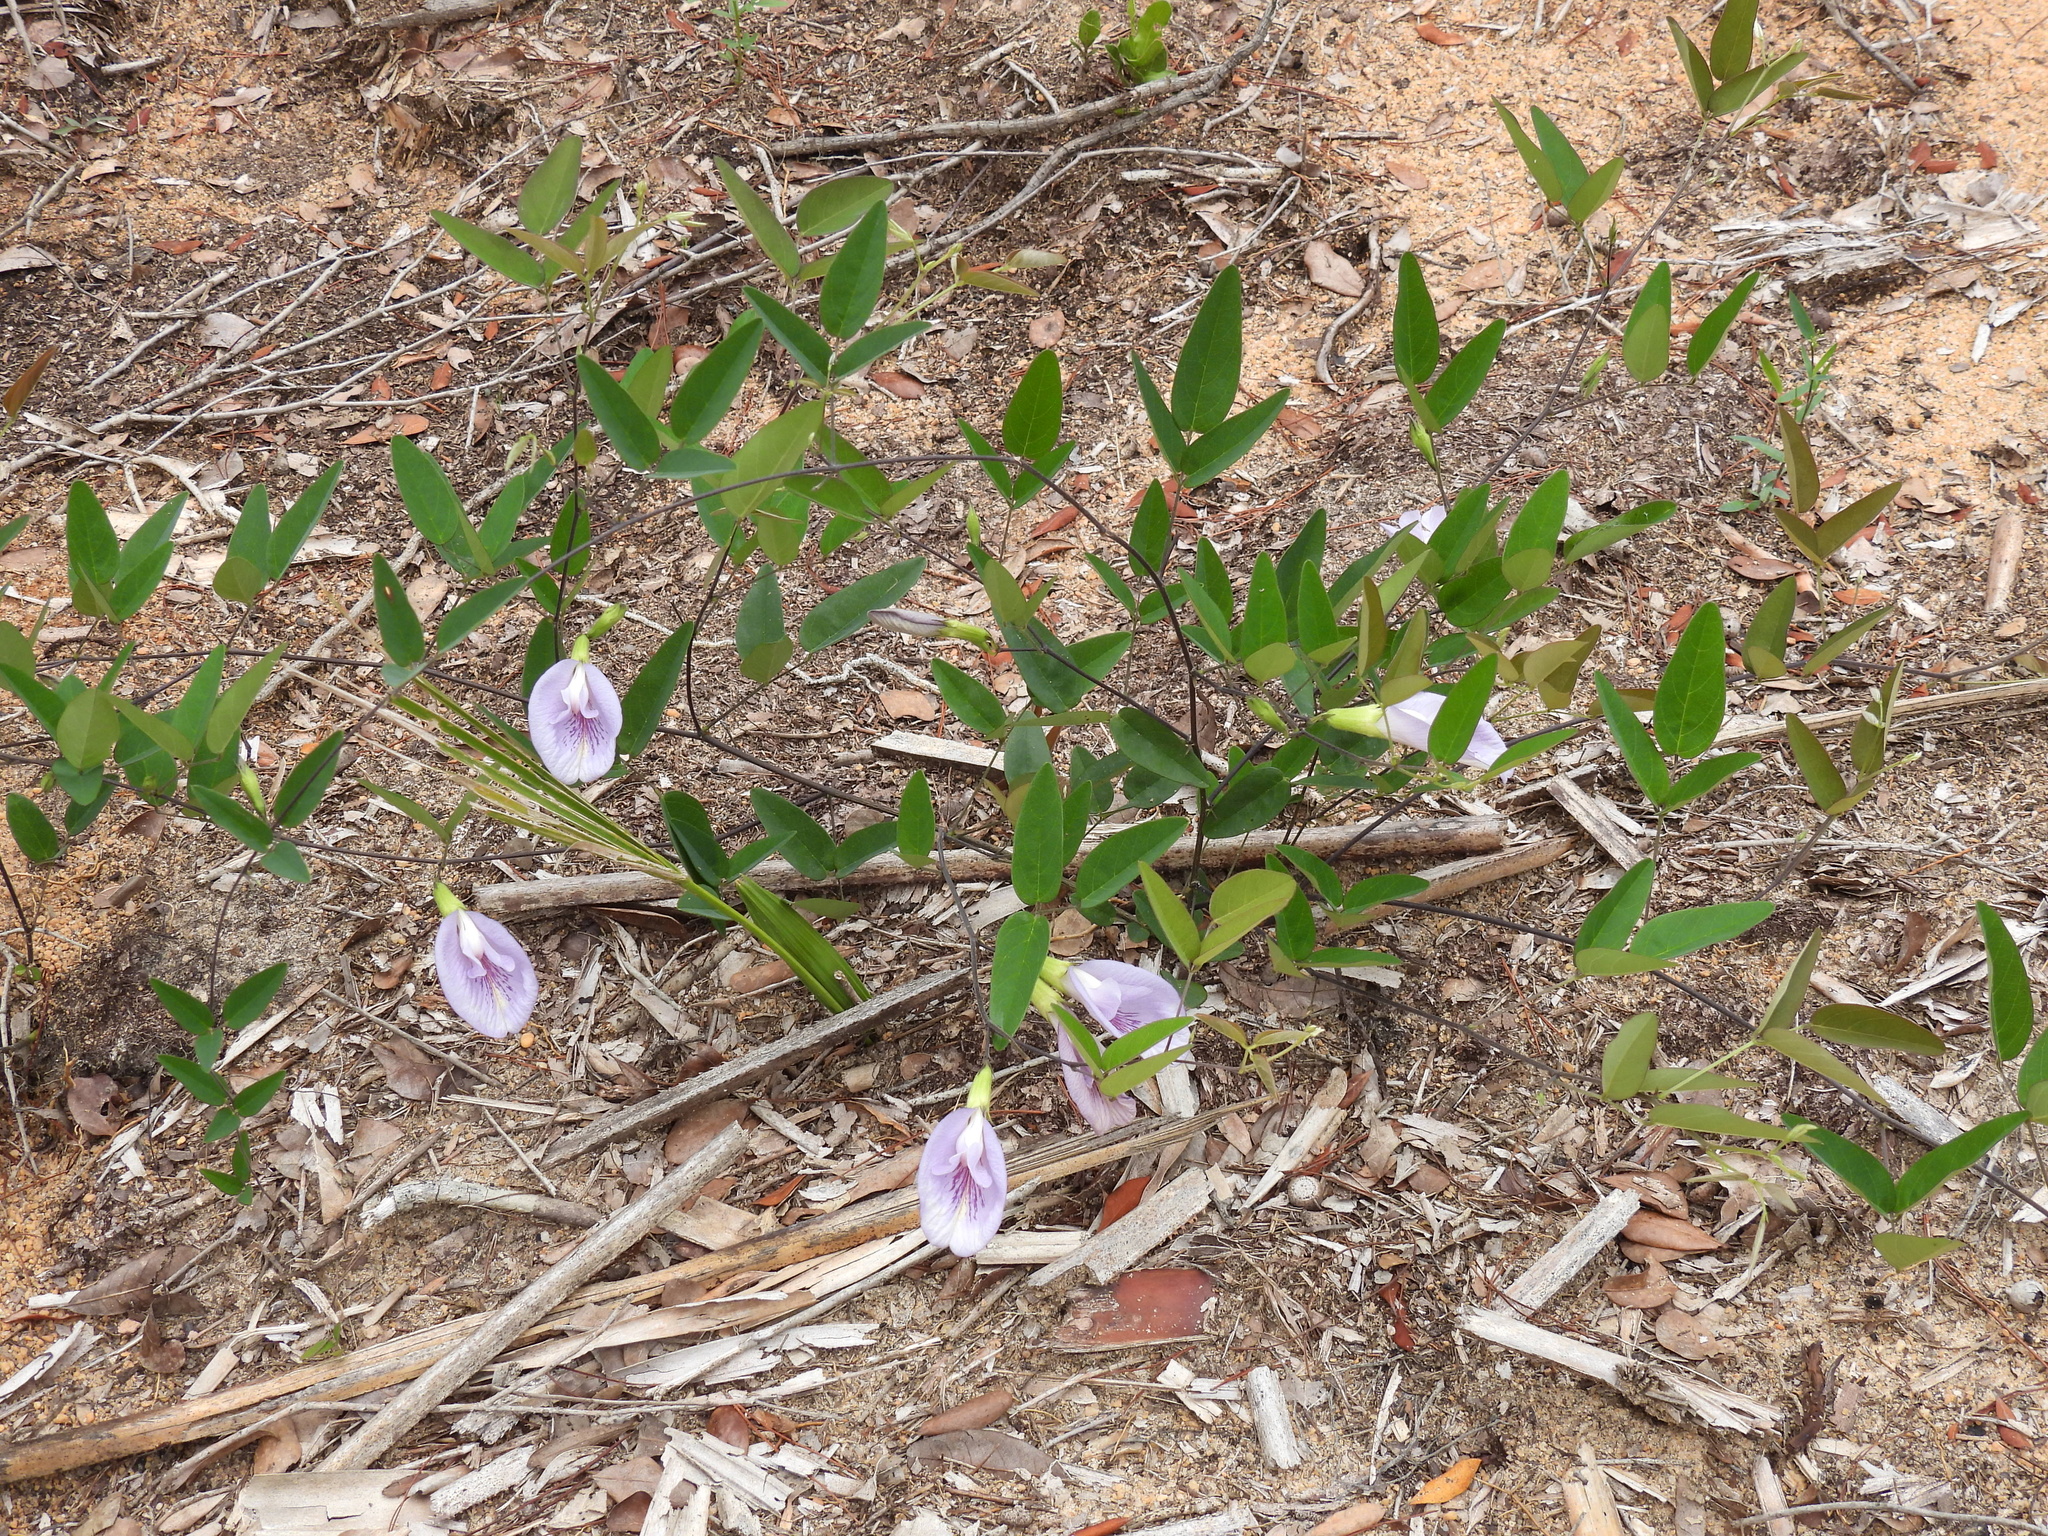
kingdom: Plantae
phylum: Tracheophyta
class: Magnoliopsida
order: Fabales
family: Fabaceae
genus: Clitoria
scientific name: Clitoria mariana
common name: Butterfly-pea
